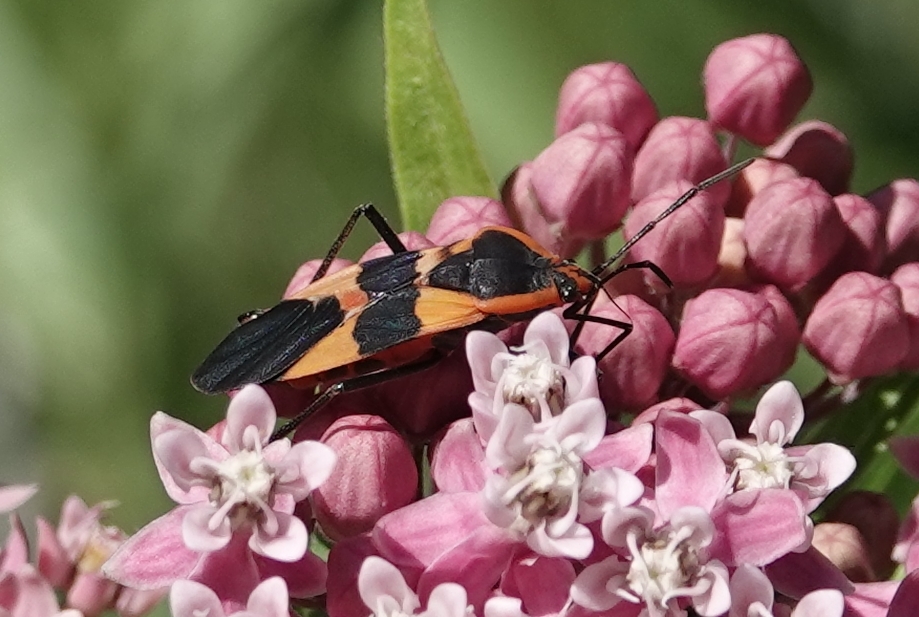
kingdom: Animalia
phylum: Arthropoda
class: Insecta
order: Hemiptera
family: Lygaeidae
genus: Oncopeltus
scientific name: Oncopeltus fasciatus
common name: Large milkweed bug
